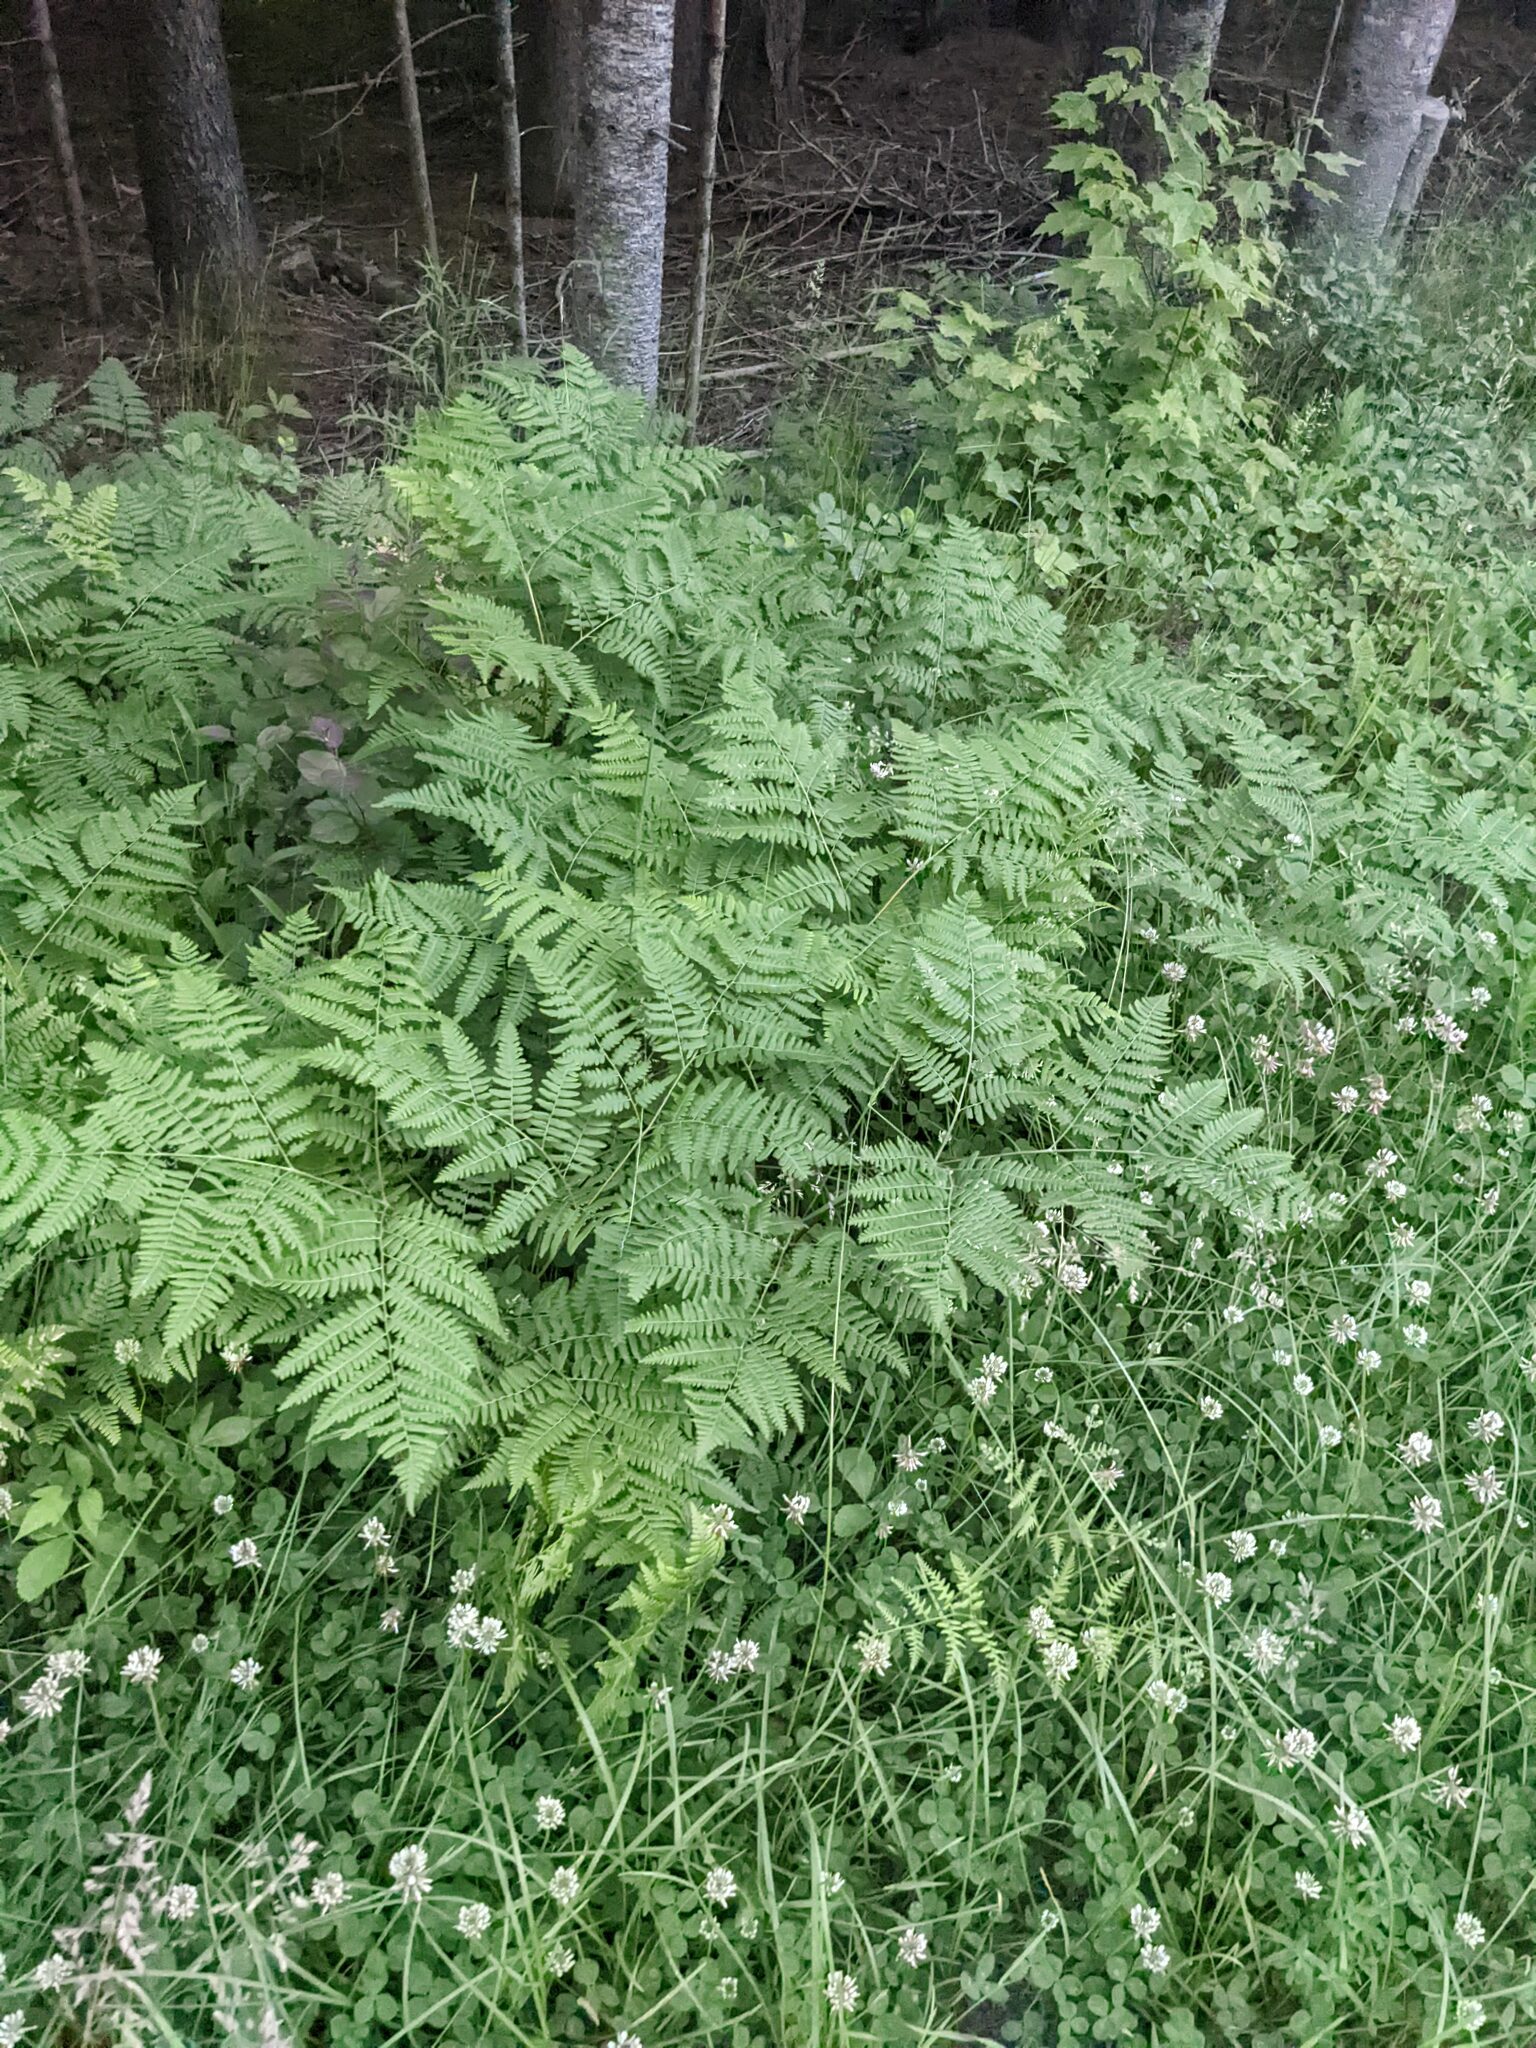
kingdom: Plantae
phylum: Tracheophyta
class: Polypodiopsida
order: Polypodiales
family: Dennstaedtiaceae
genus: Pteridium
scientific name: Pteridium aquilinum
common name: Bracken
